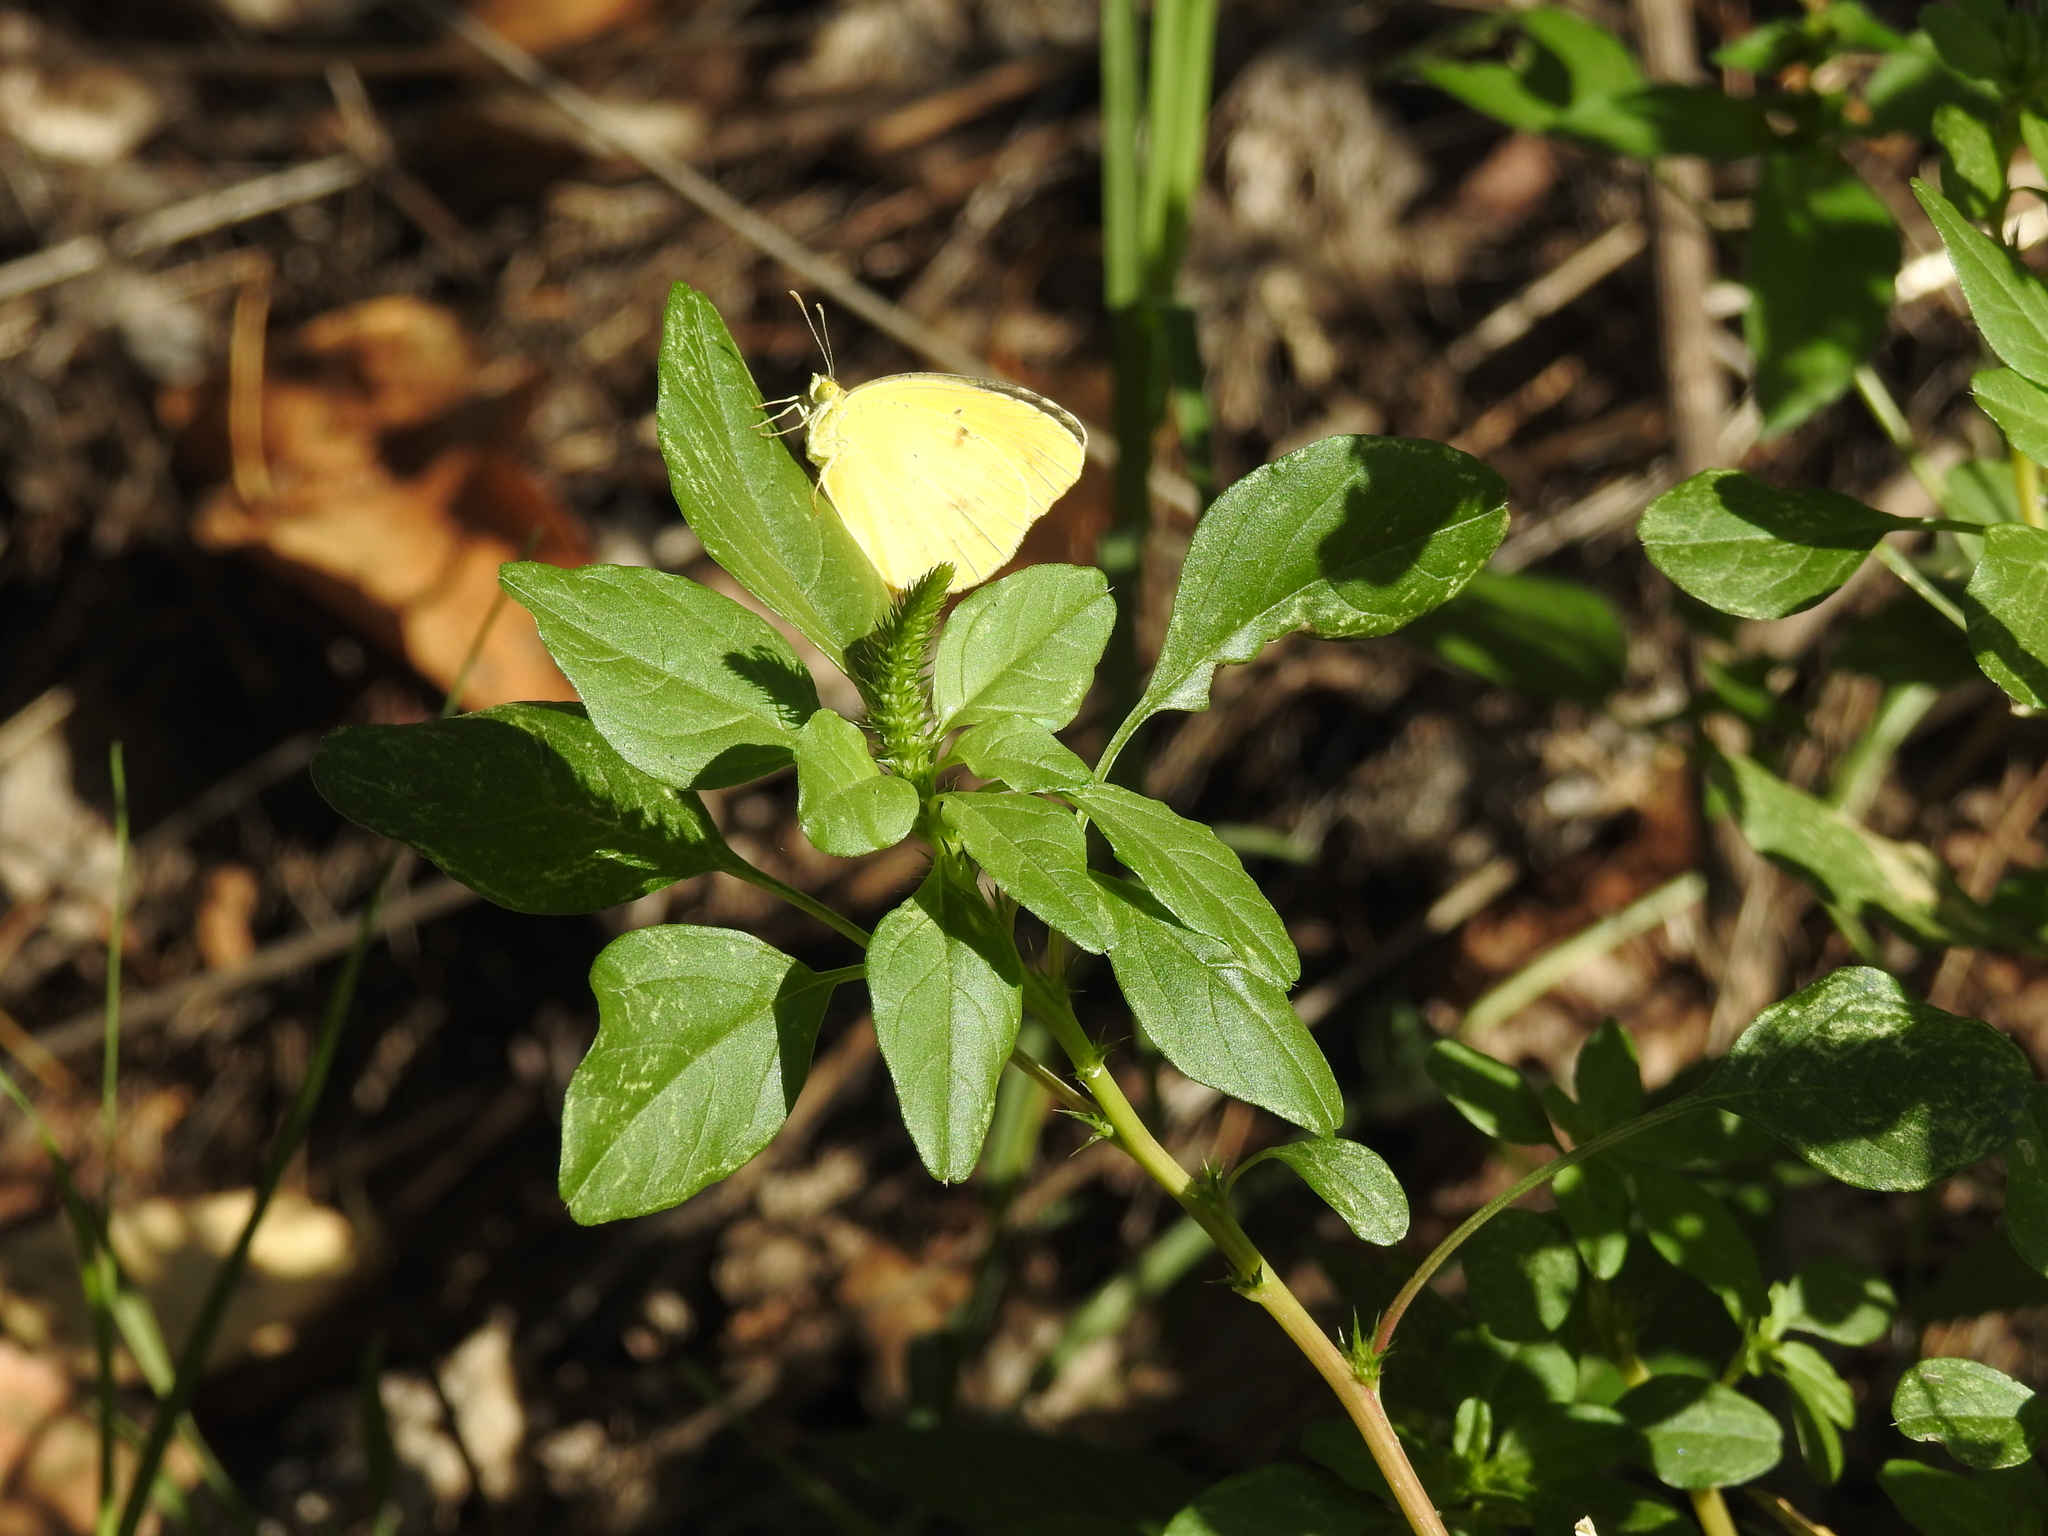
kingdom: Animalia
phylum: Arthropoda
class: Insecta
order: Lepidoptera
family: Pieridae
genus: Abaeis
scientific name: Abaeis nicippe
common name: Sleepy orange
